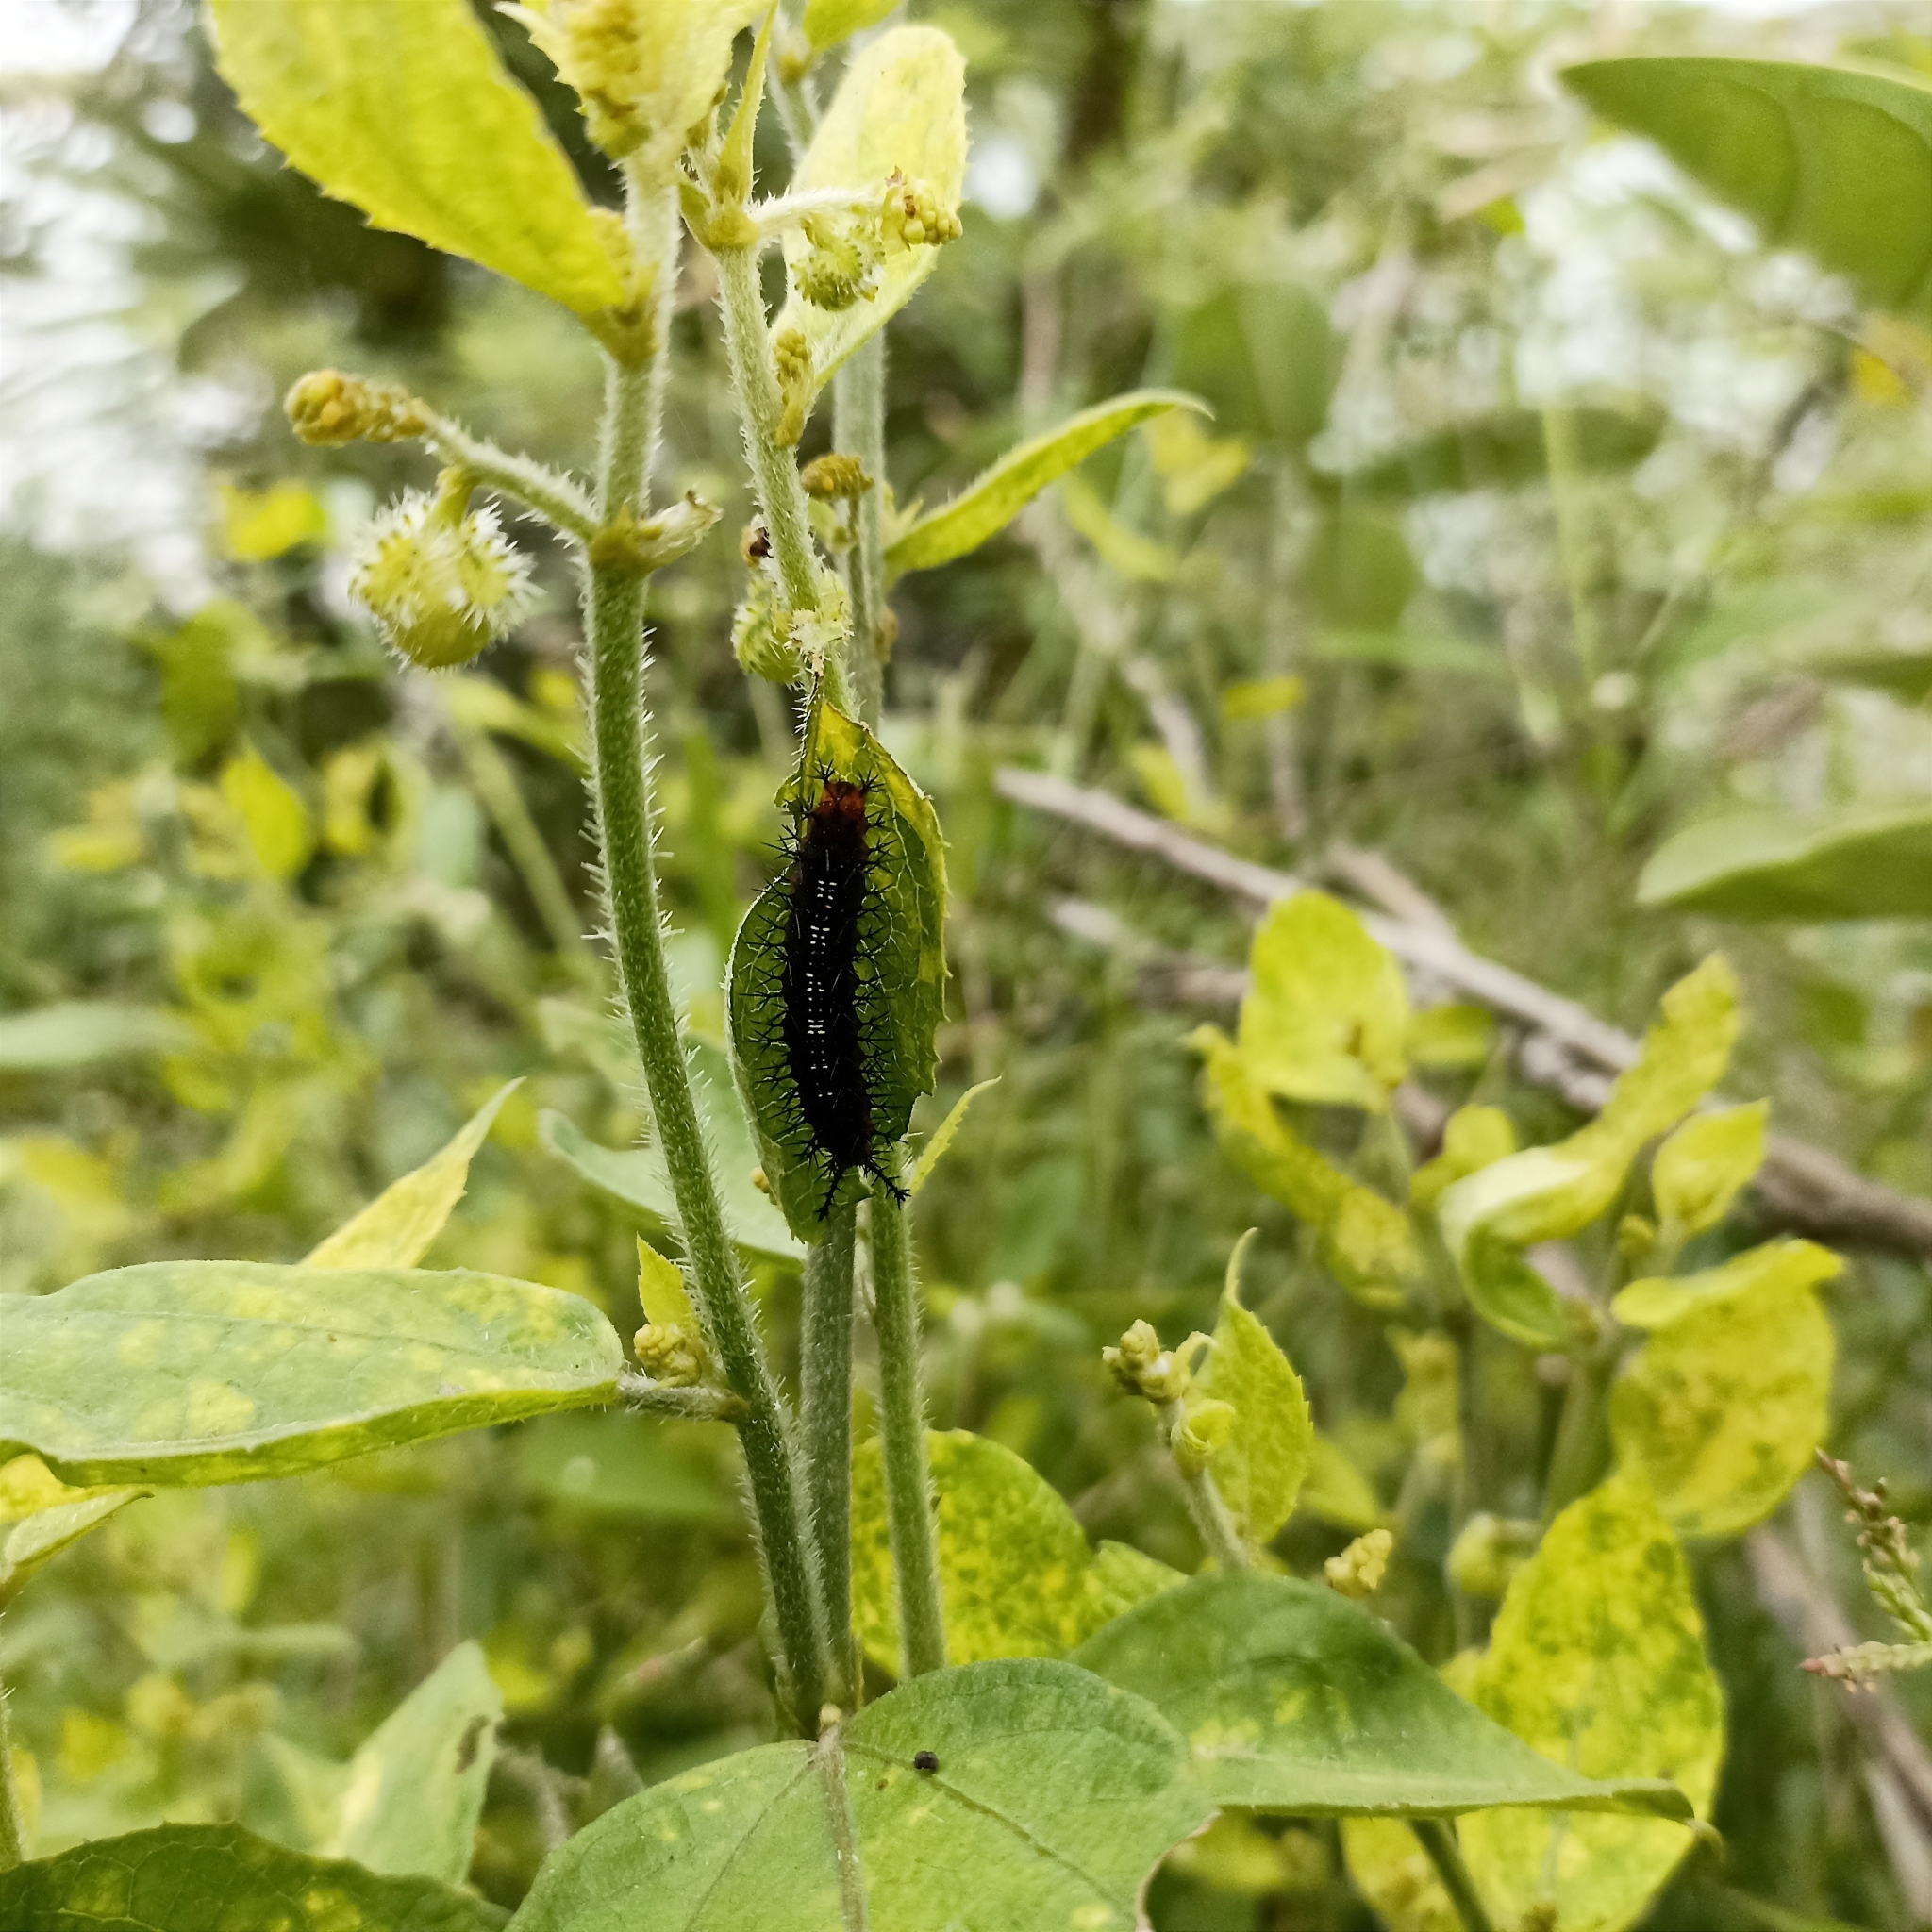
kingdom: Animalia
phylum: Arthropoda
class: Insecta
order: Lepidoptera
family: Nymphalidae
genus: Ariadne
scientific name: Ariadne ariadne
